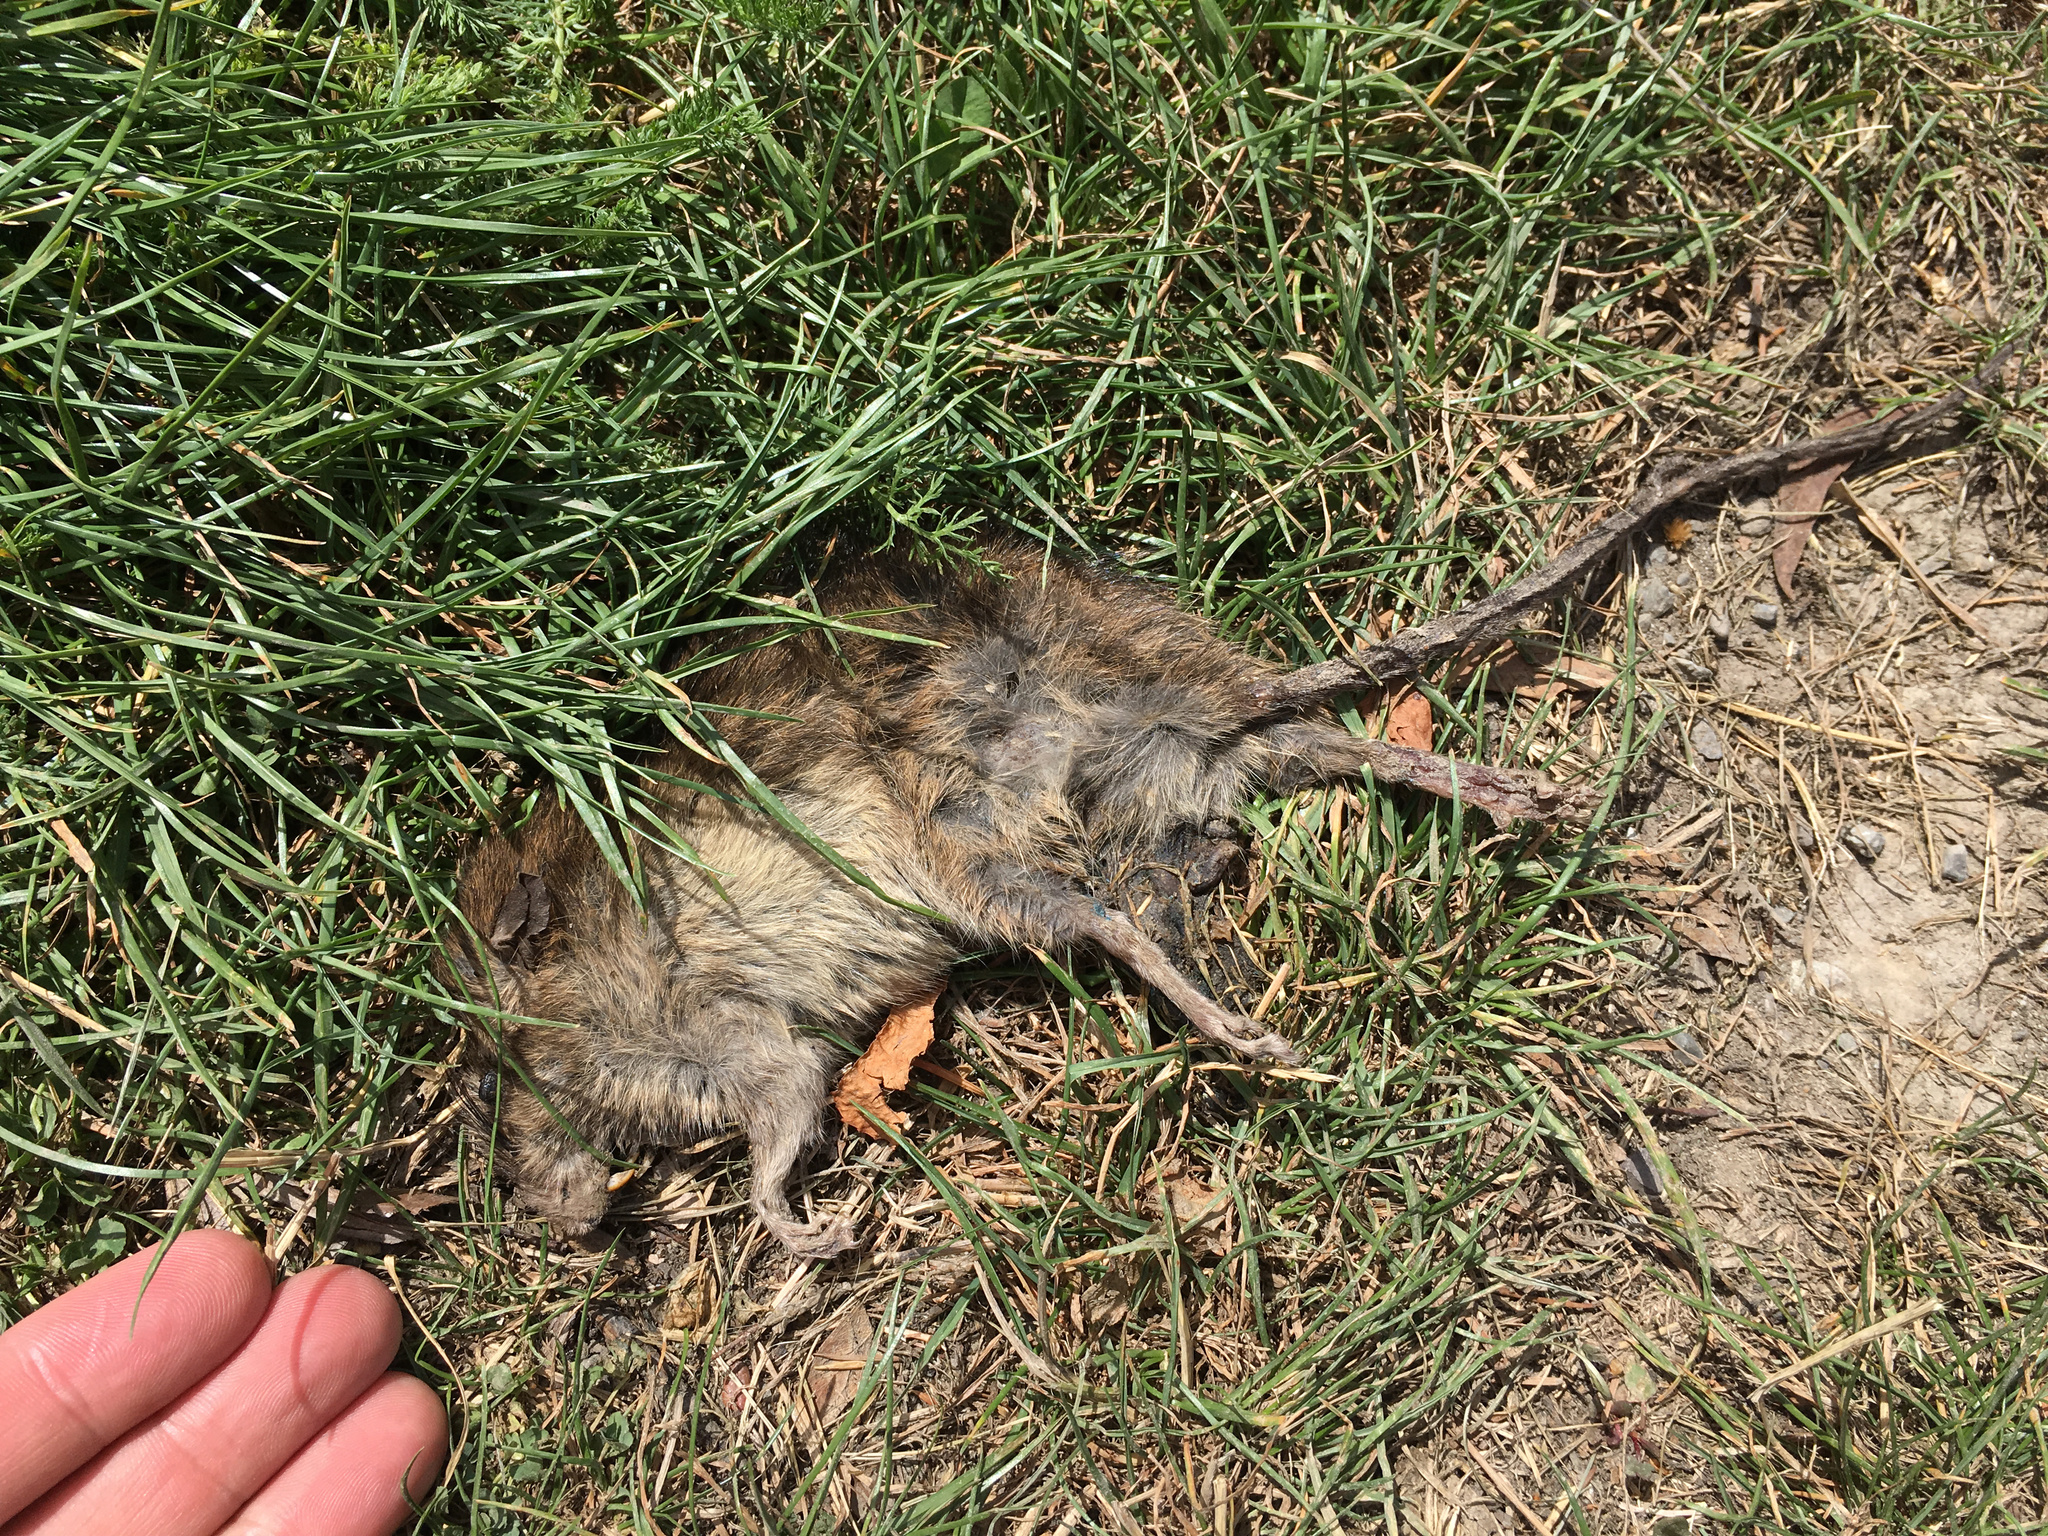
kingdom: Animalia
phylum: Chordata
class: Mammalia
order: Rodentia
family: Muridae
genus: Rattus
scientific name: Rattus norvegicus
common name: Brown rat
